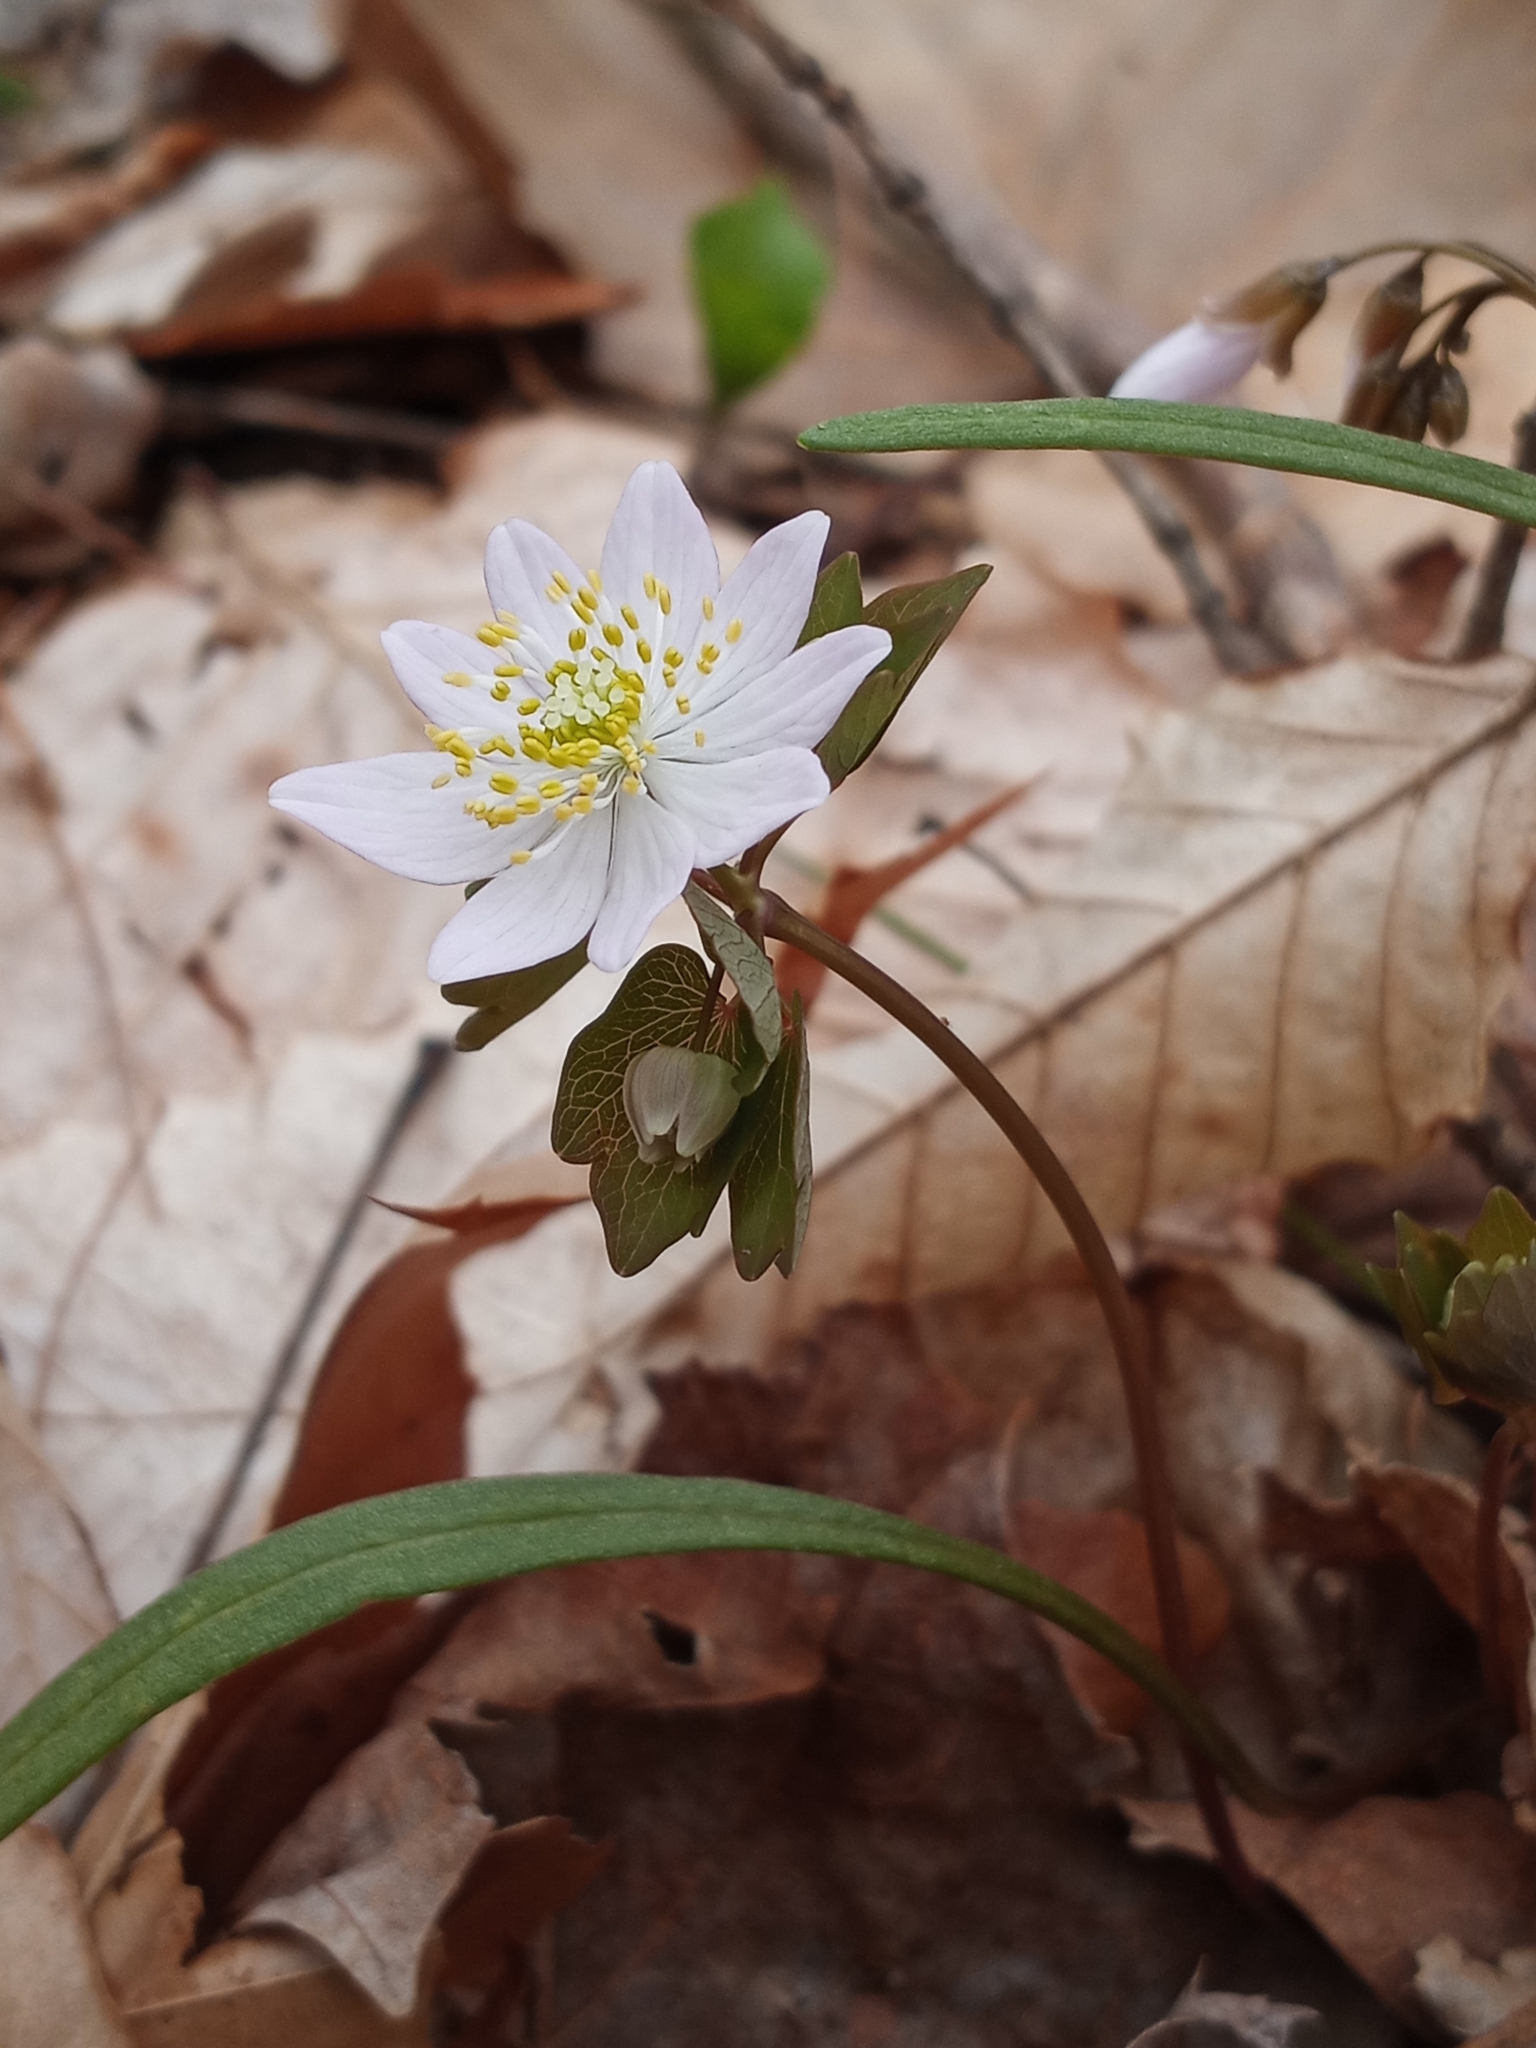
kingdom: Plantae
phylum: Tracheophyta
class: Magnoliopsida
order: Ranunculales
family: Ranunculaceae
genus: Thalictrum
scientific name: Thalictrum thalictroides
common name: Rue-anemone
